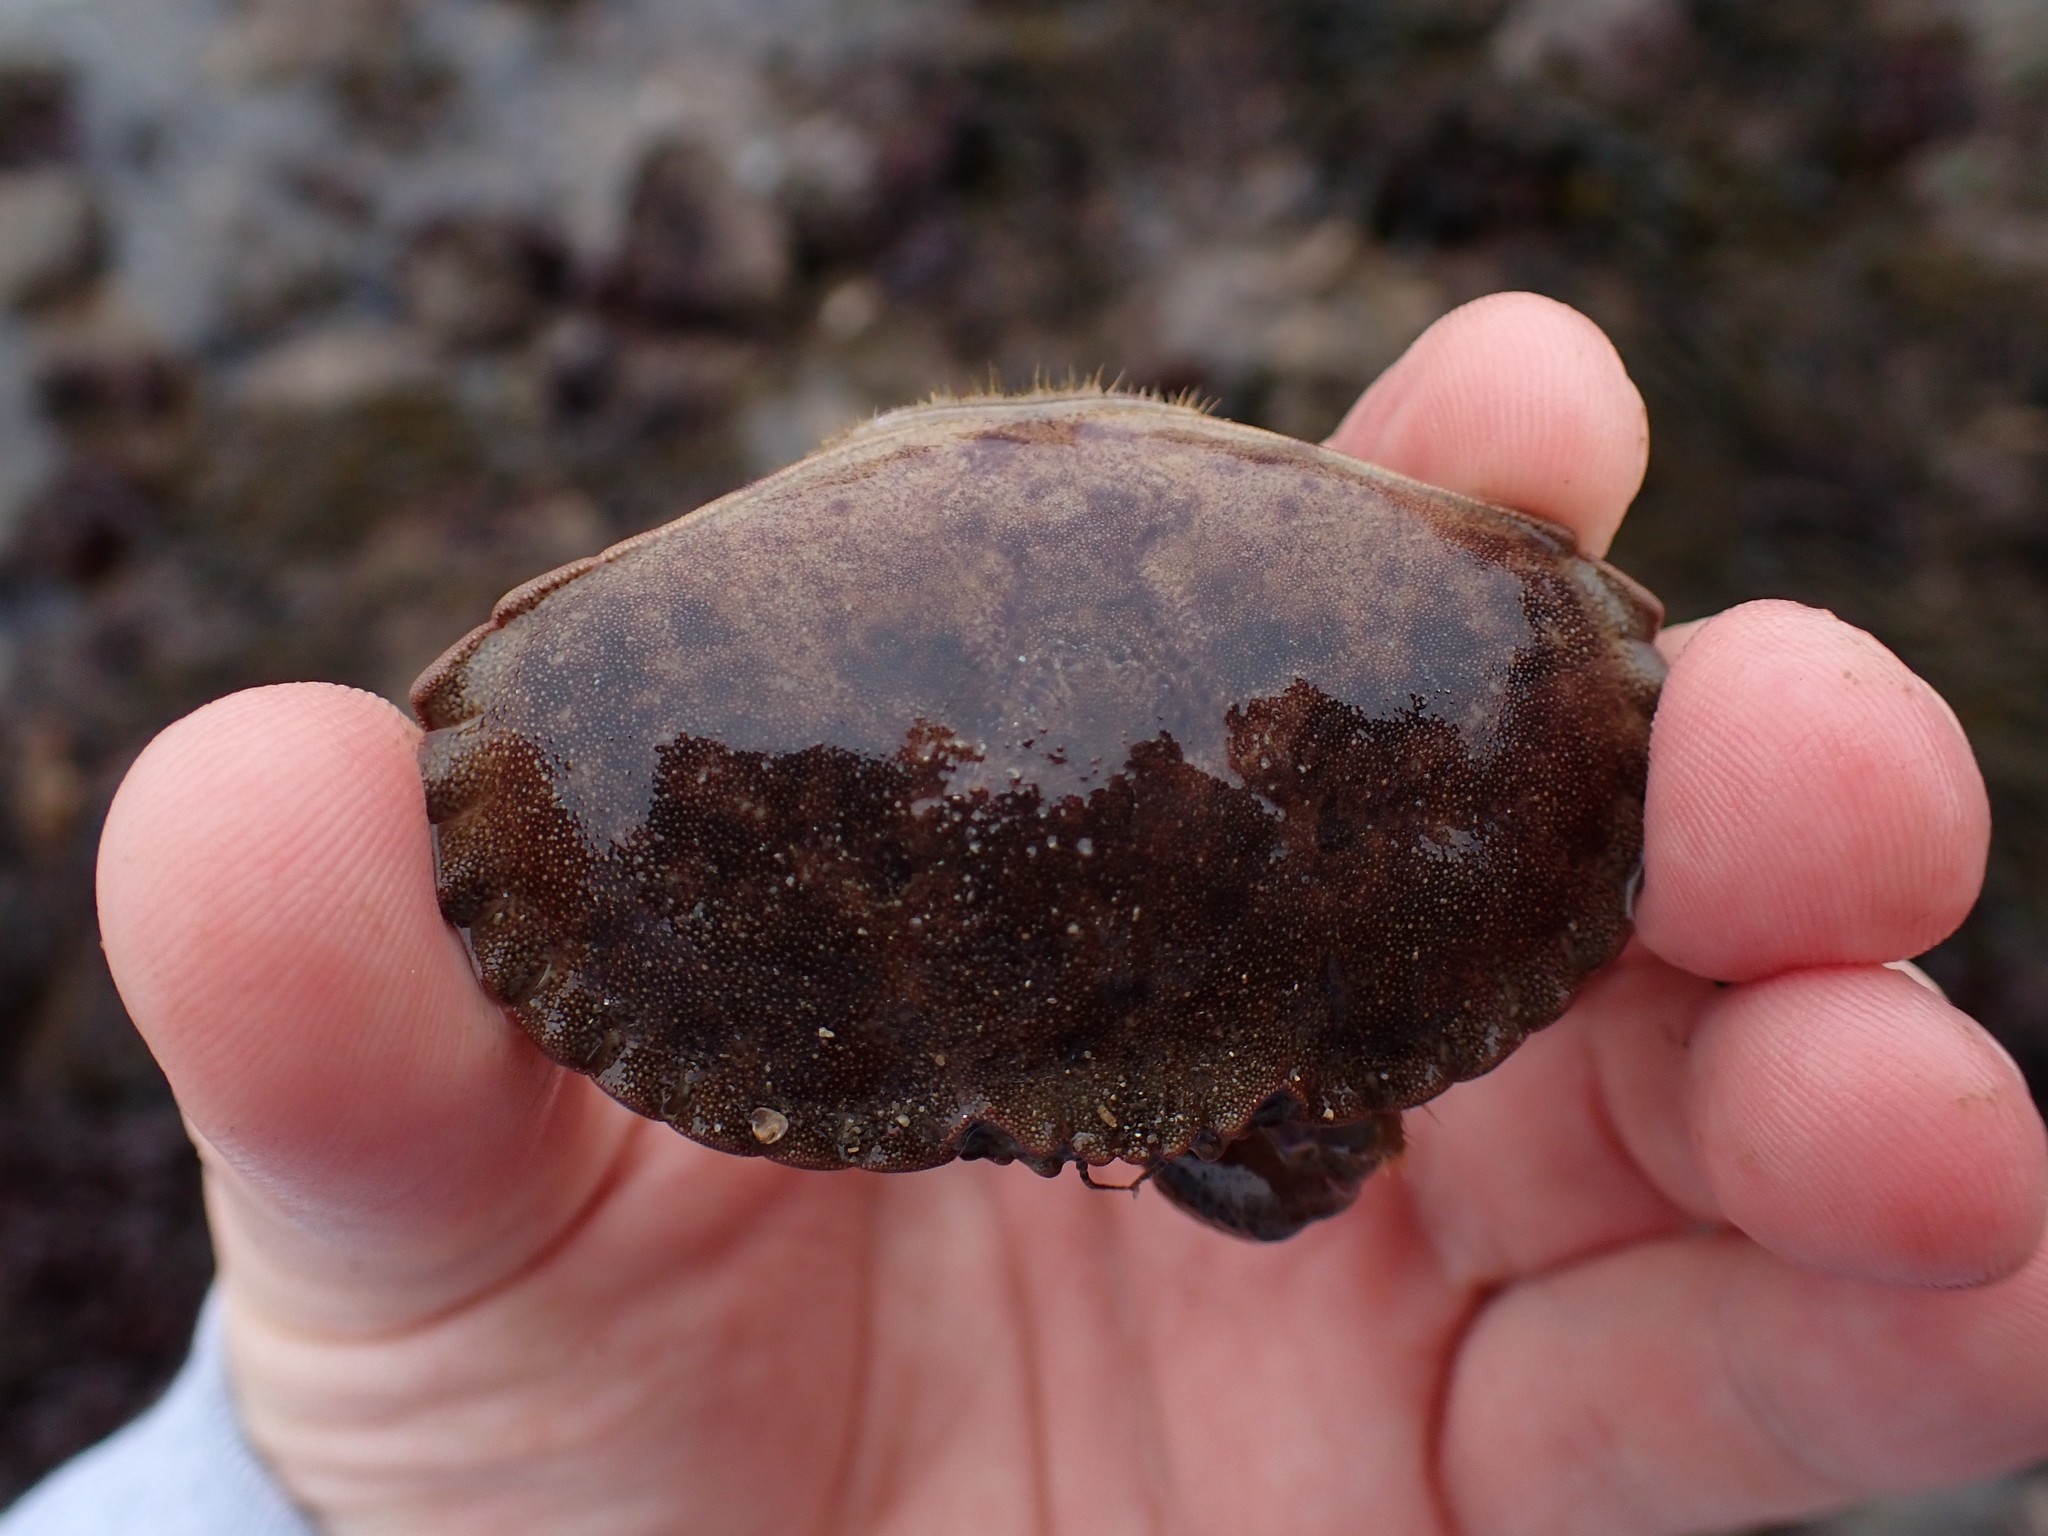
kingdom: Animalia
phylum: Arthropoda
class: Malacostraca
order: Decapoda
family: Cancridae
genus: Cancer
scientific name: Cancer pagurus
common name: Edible crab
